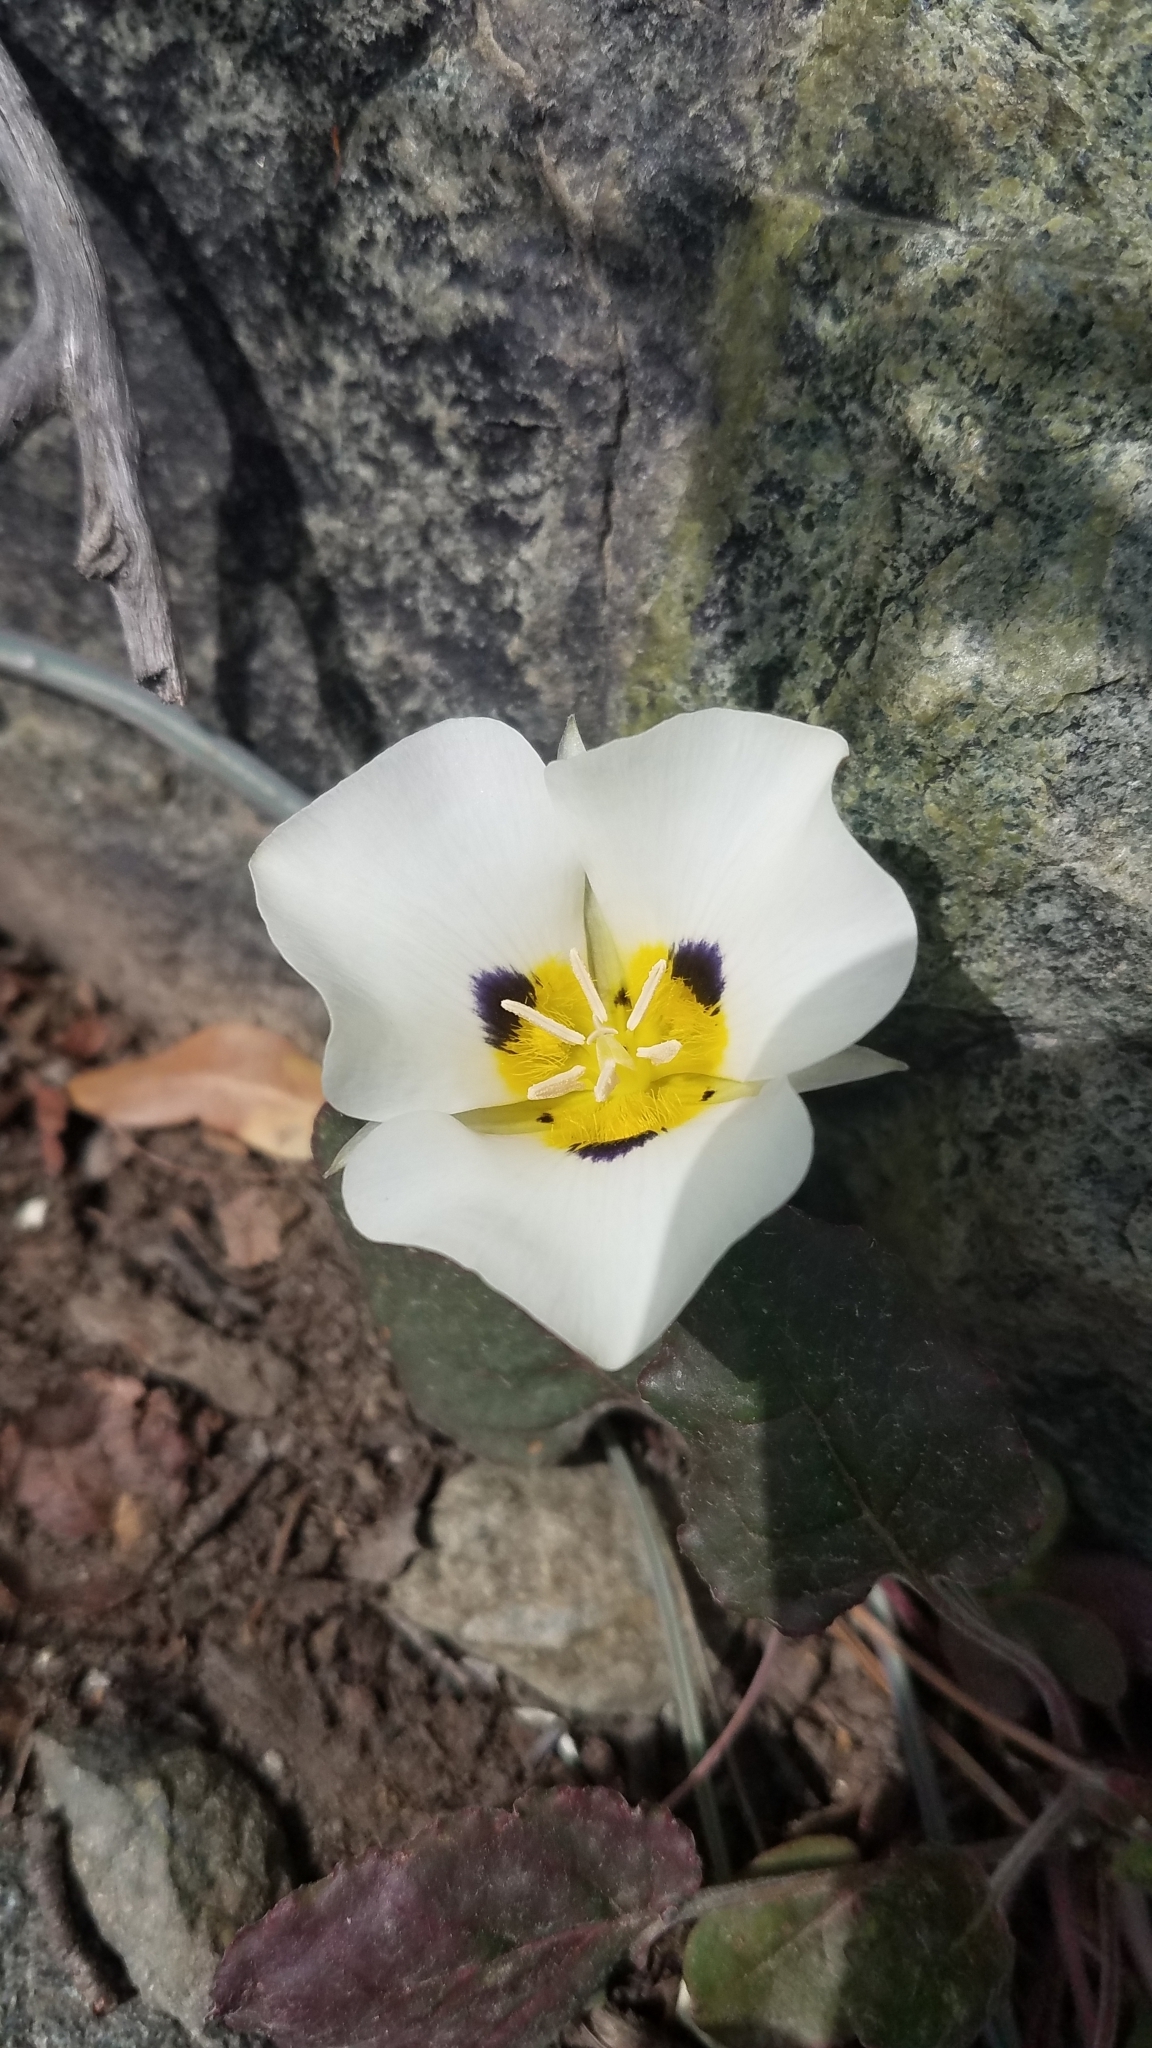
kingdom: Plantae
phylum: Tracheophyta
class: Liliopsida
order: Liliales
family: Liliaceae
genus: Calochortus
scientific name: Calochortus leichtlinii
